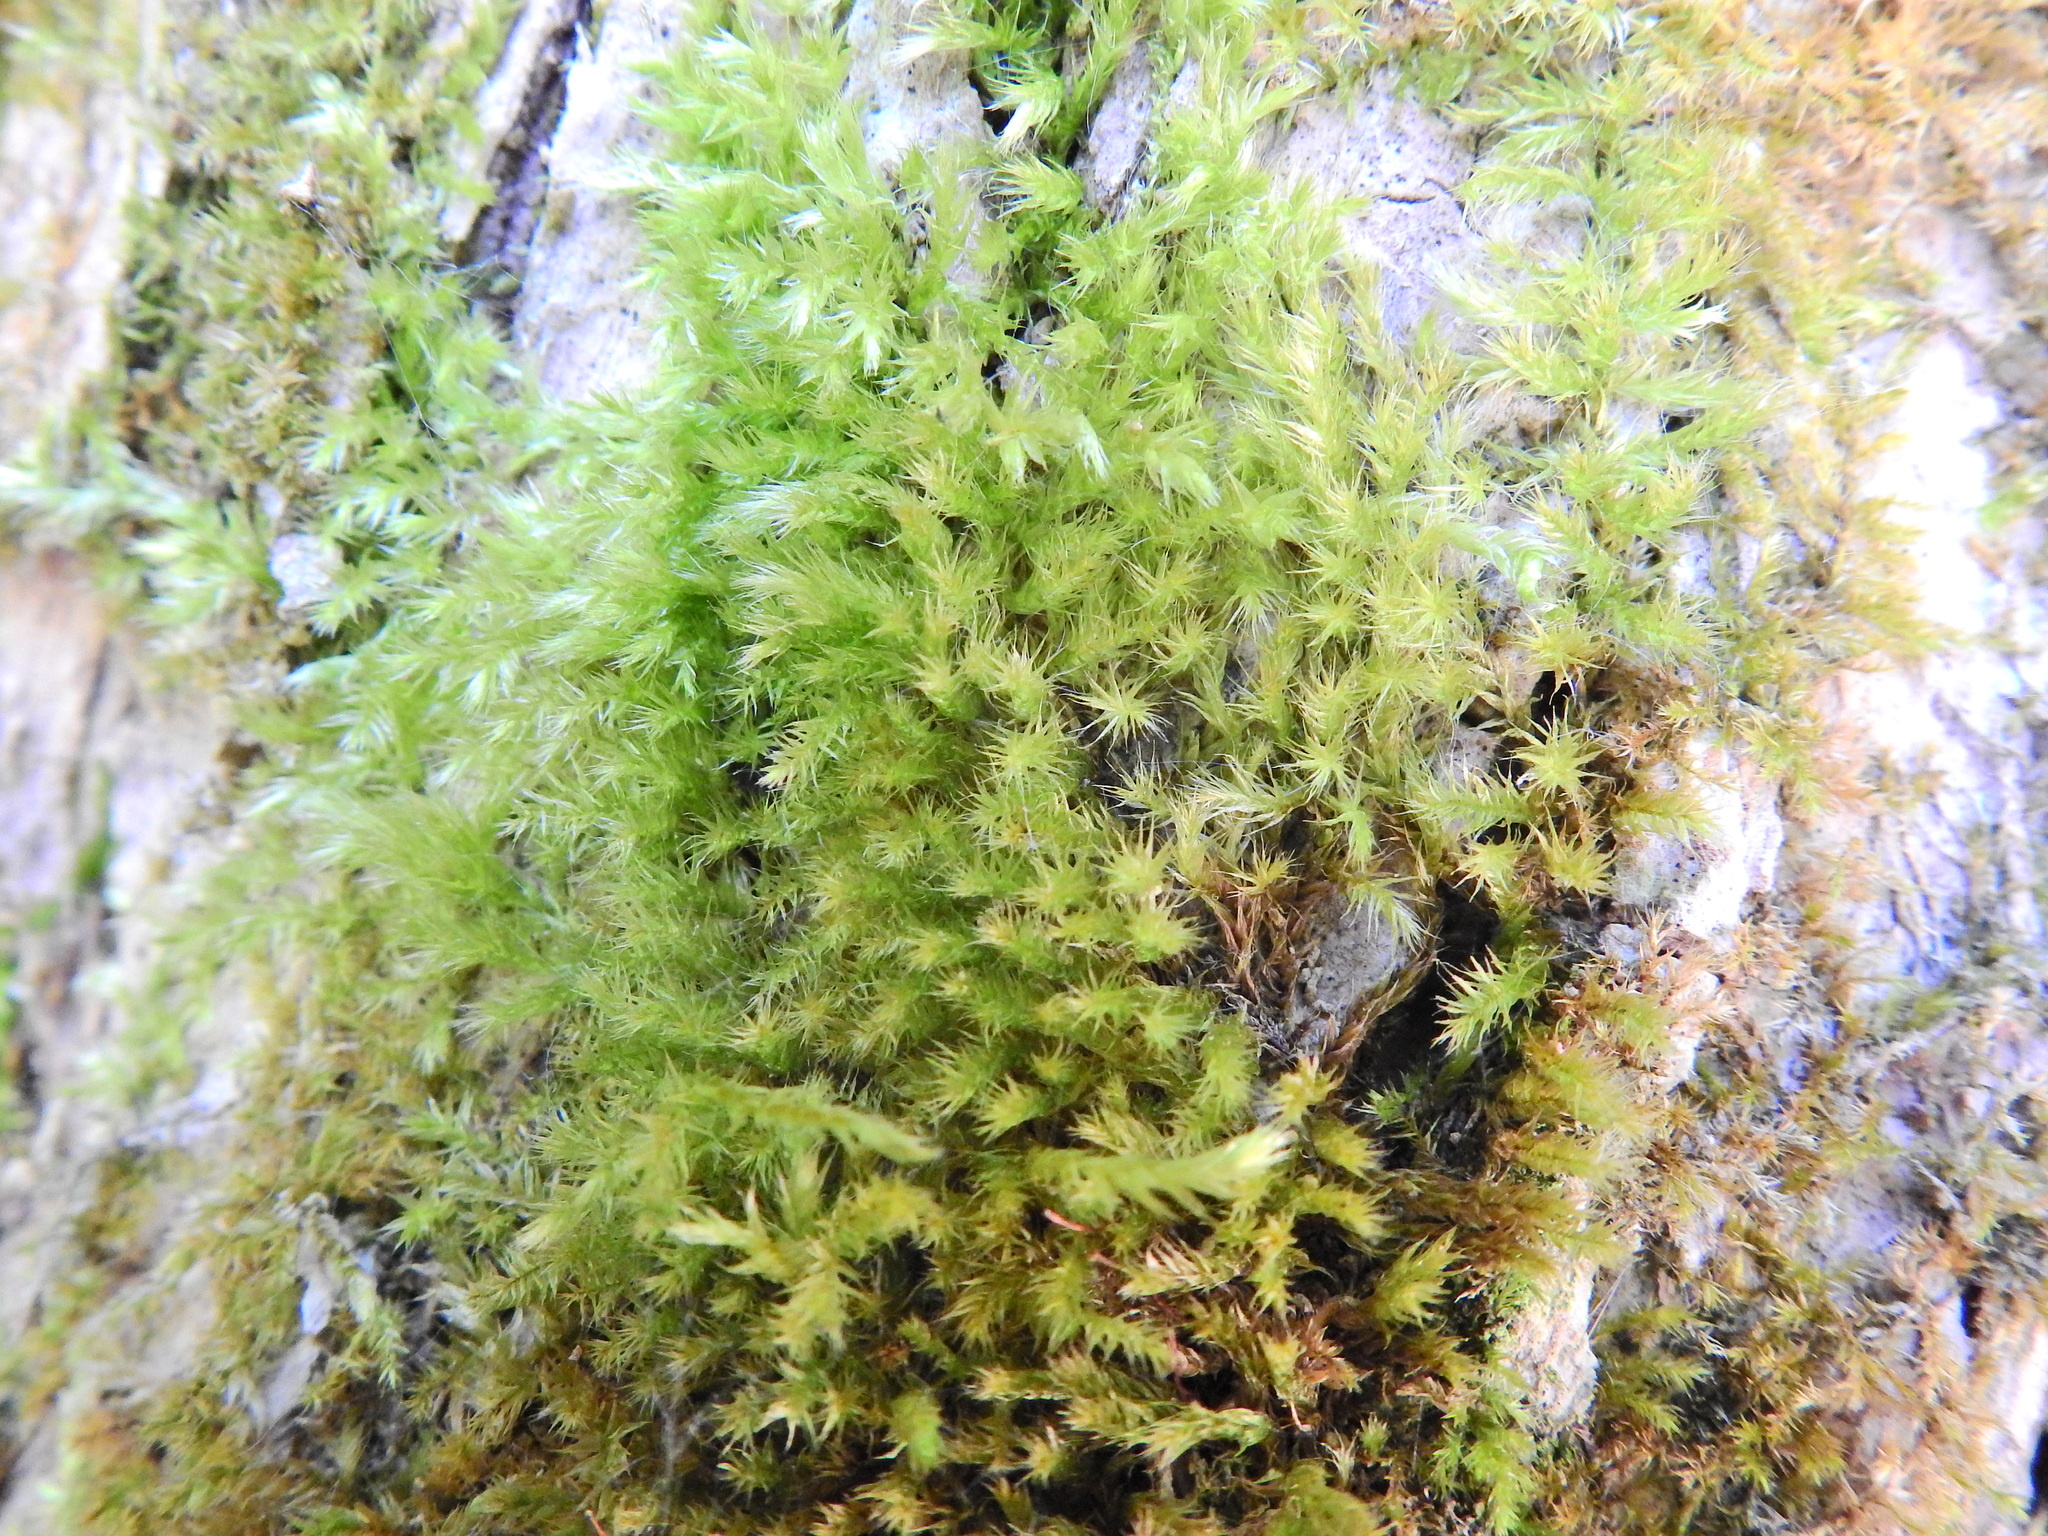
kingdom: Plantae
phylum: Bryophyta
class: Bryopsida
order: Hypnales
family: Brachytheciaceae
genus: Homalothecium
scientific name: Homalothecium sericeum
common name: Silky wall feather-moss
